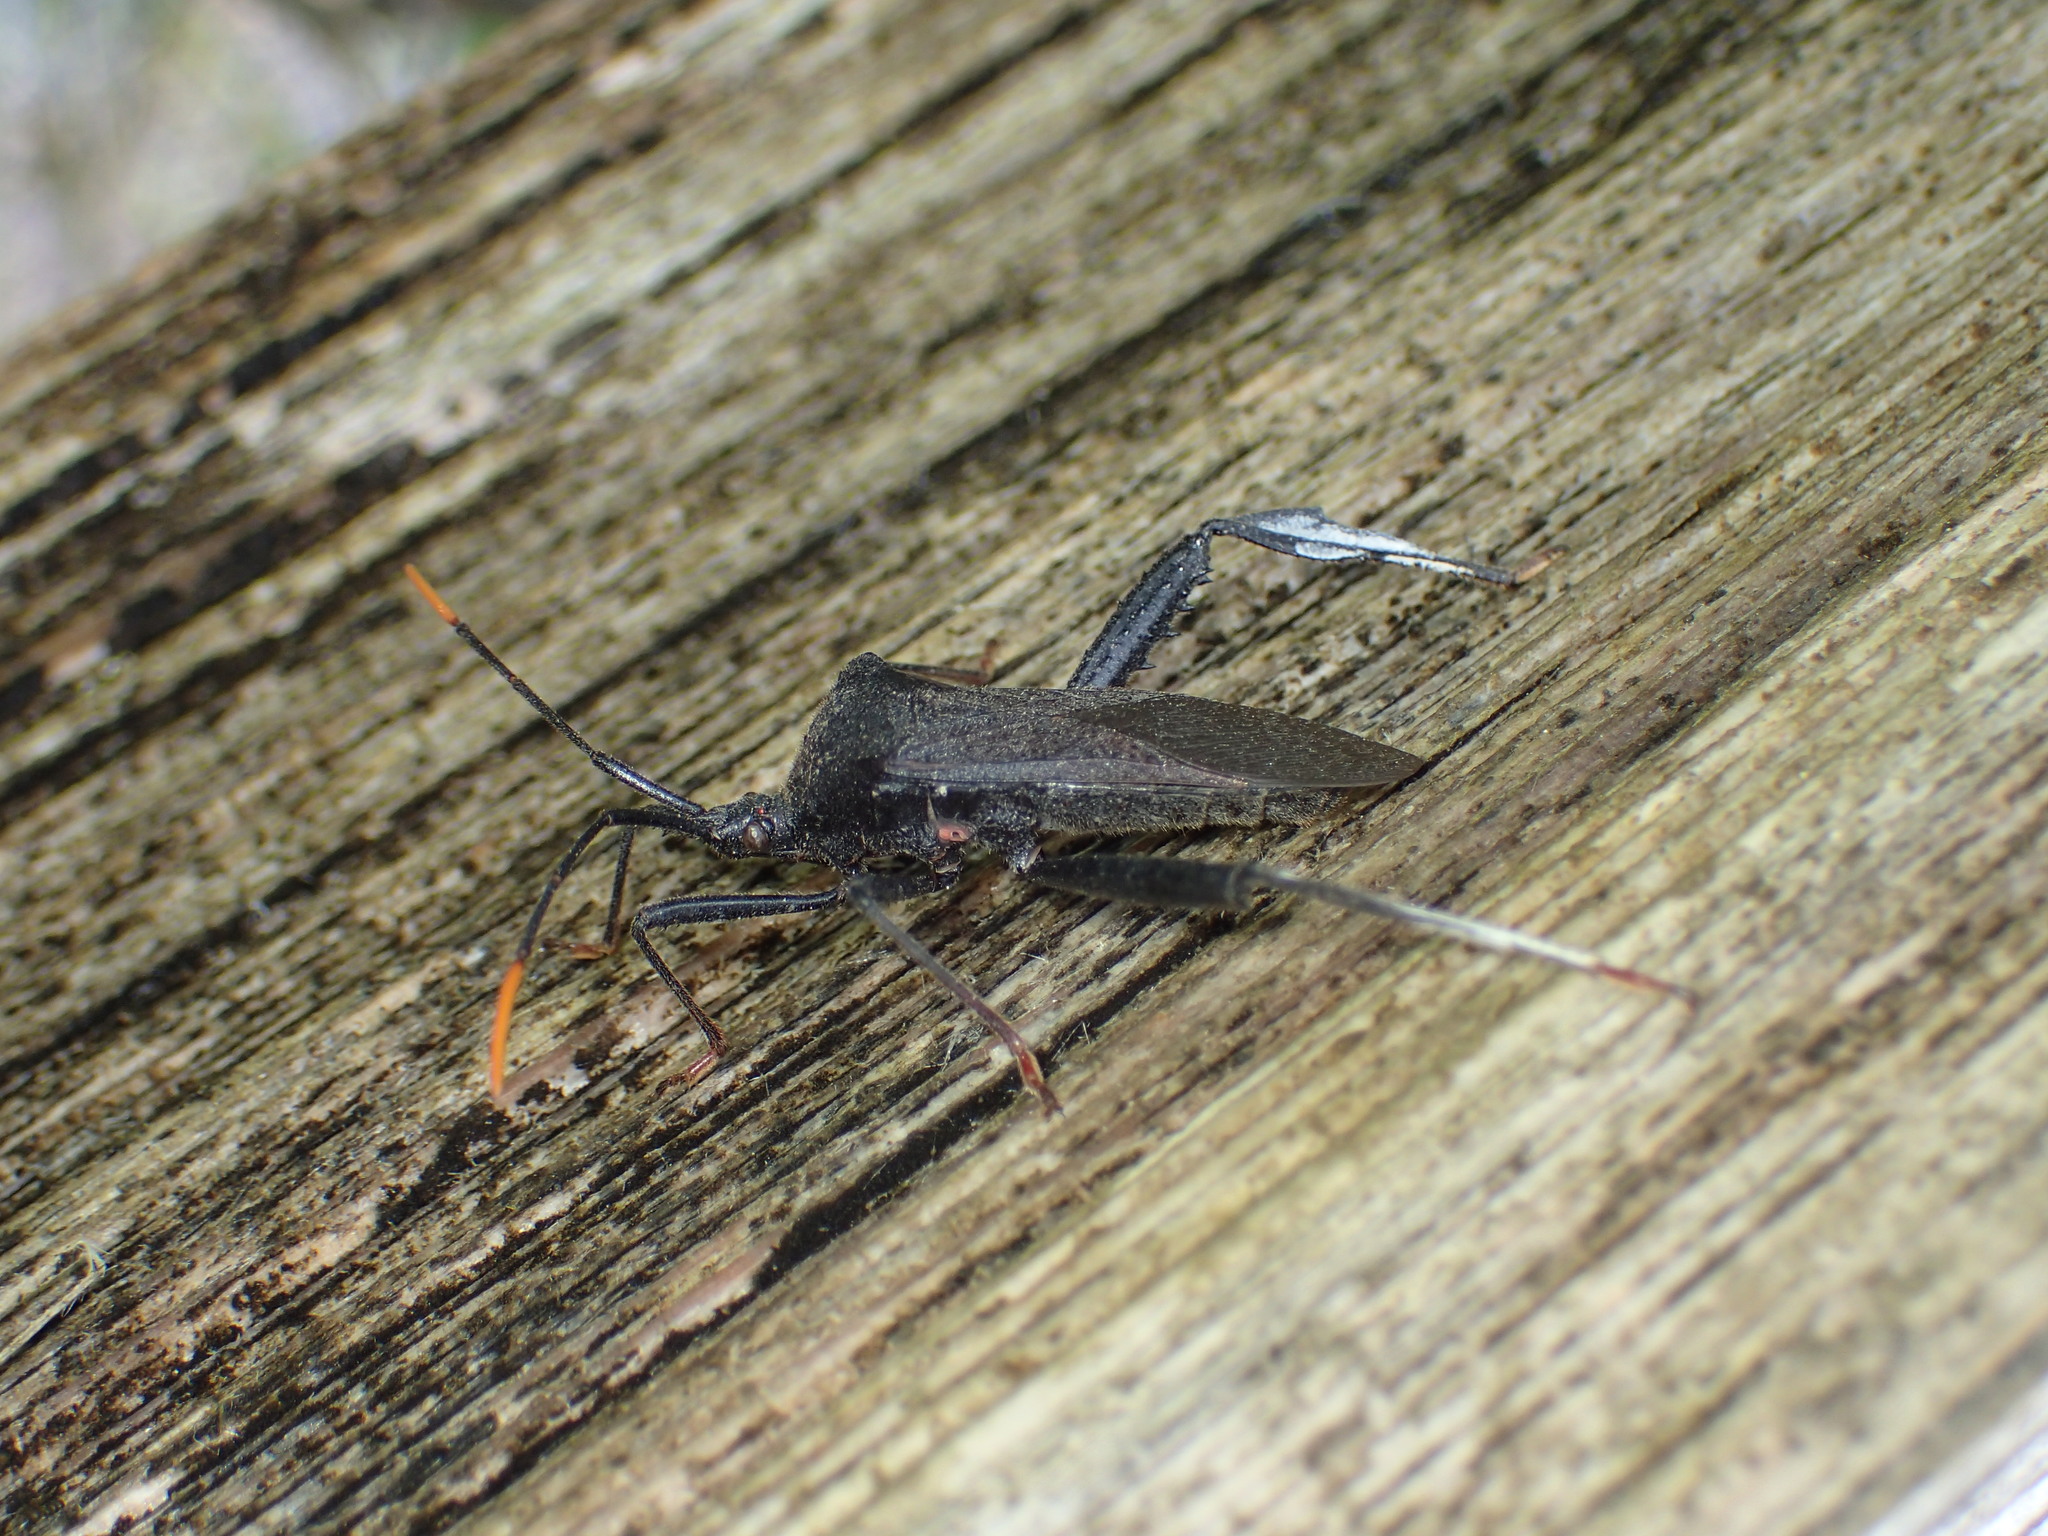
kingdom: Animalia
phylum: Arthropoda
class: Insecta
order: Hemiptera
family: Coreidae
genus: Acanthocephala
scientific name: Acanthocephala terminalis
